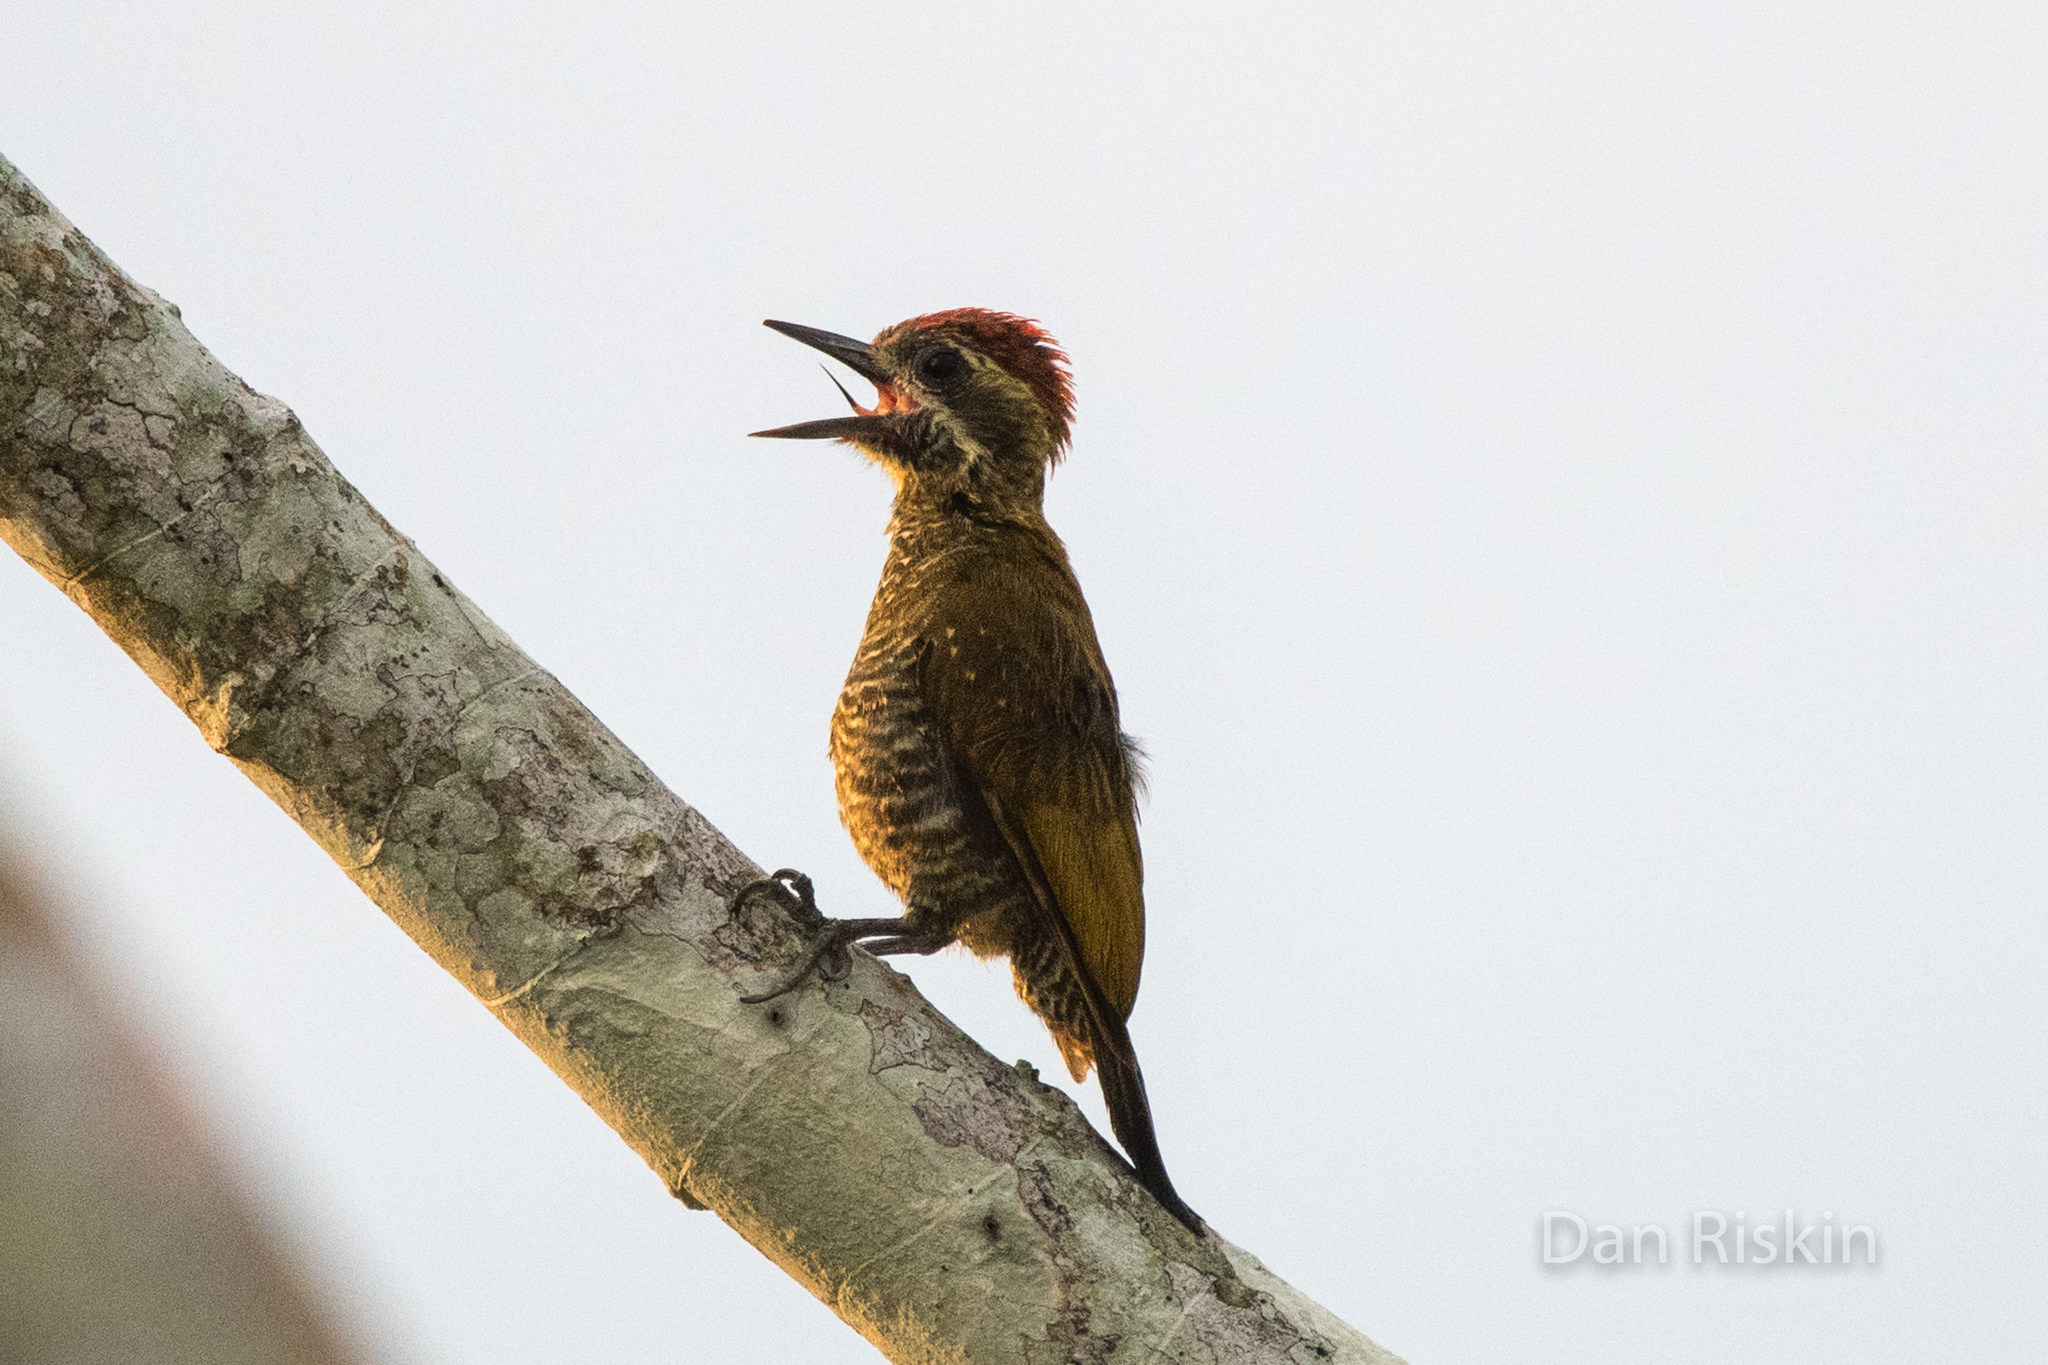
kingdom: Animalia
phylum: Chordata
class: Aves
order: Piciformes
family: Picidae
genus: Veniliornis
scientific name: Veniliornis passerinus
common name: Little woodpecker
